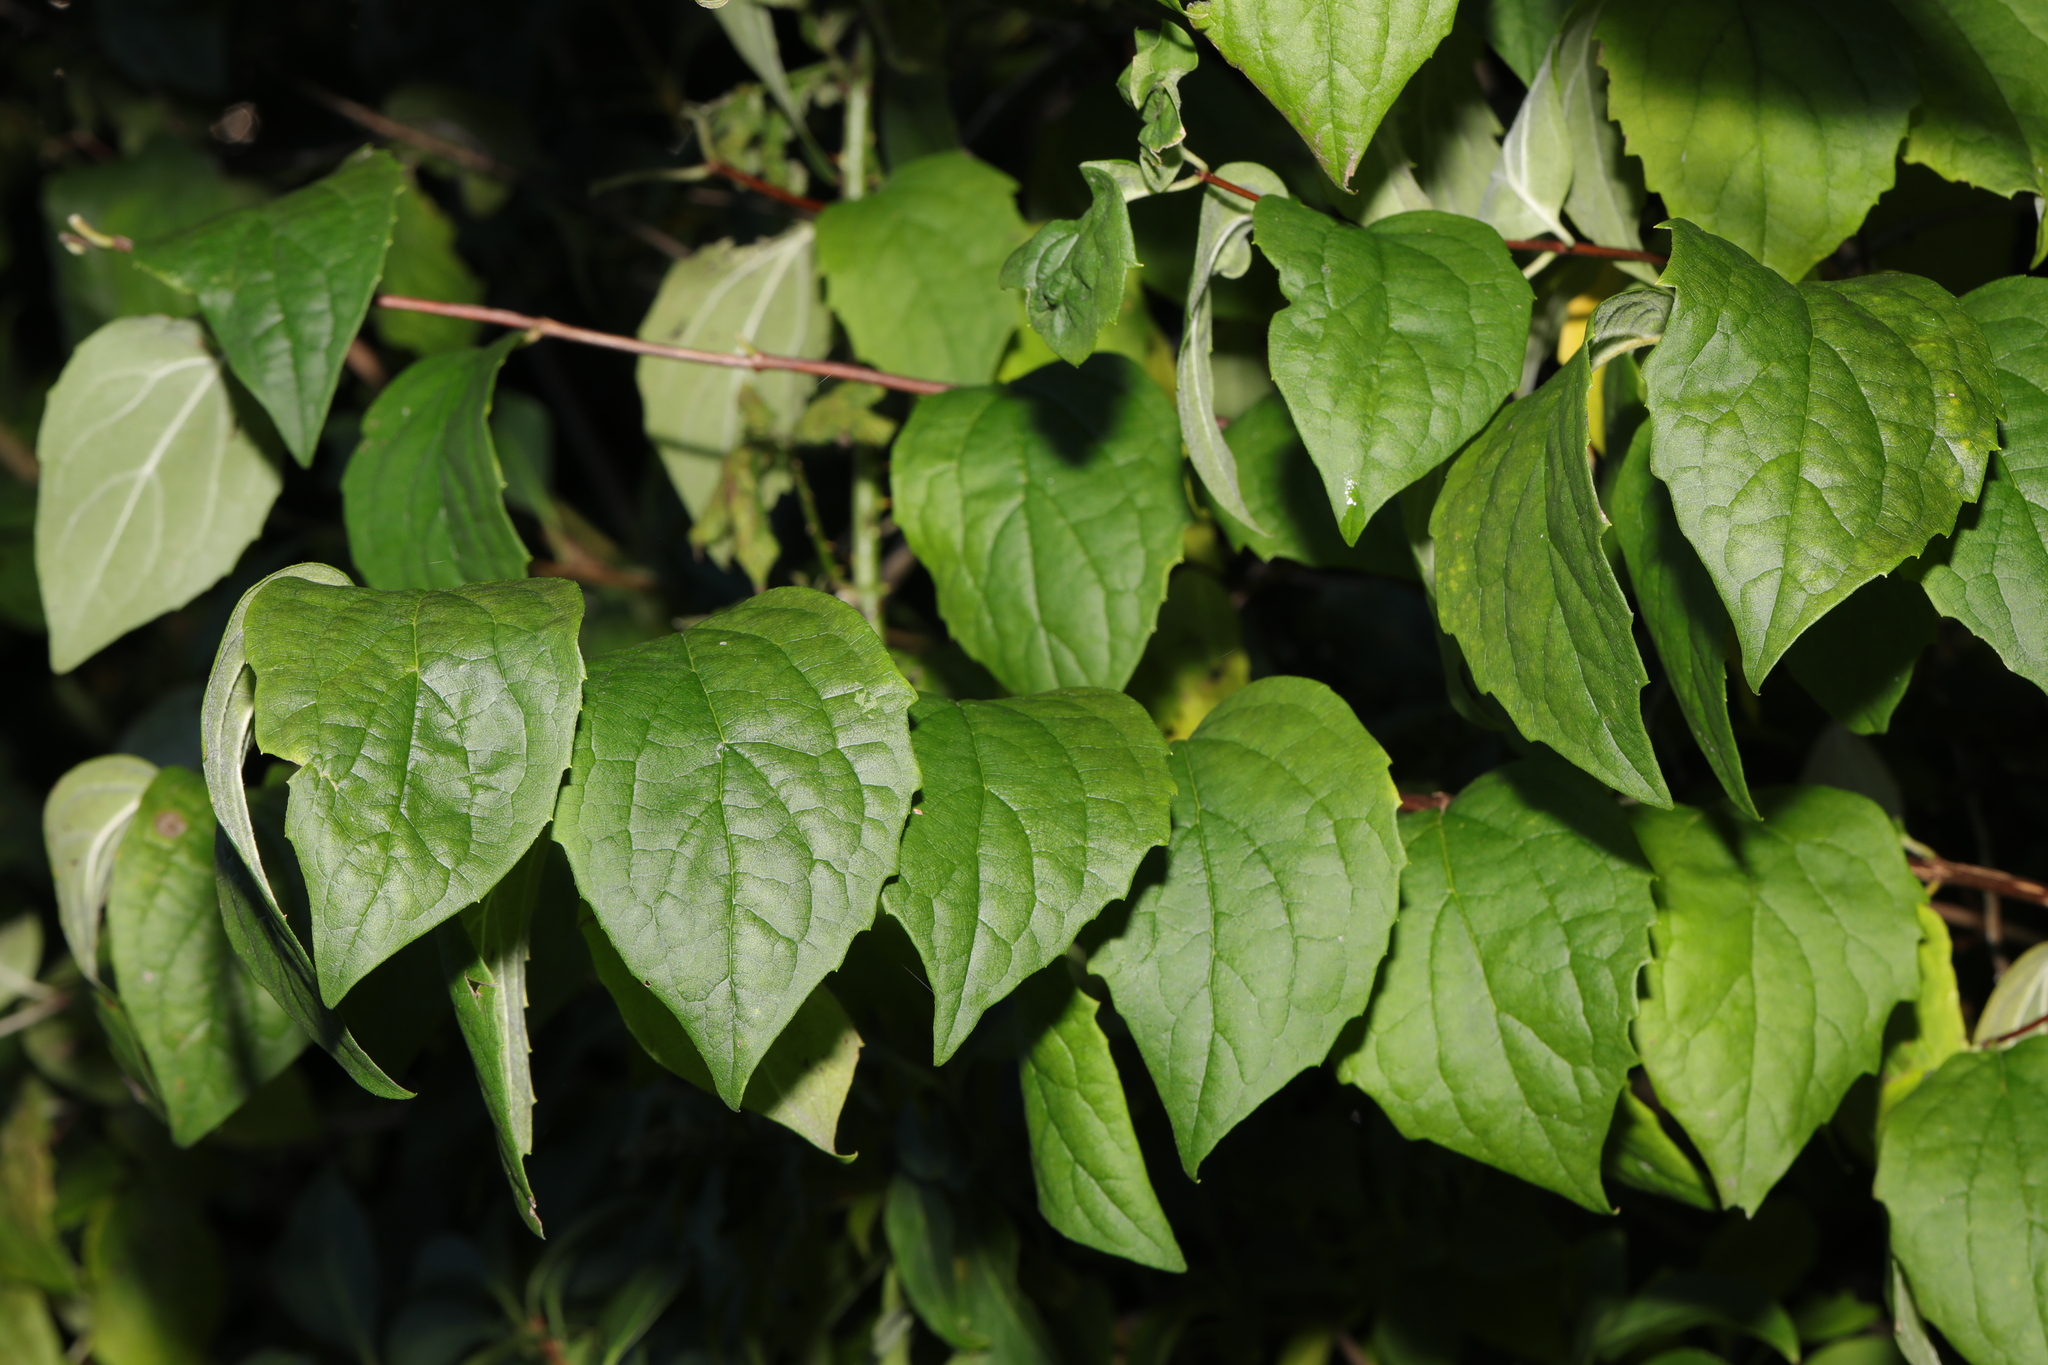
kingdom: Plantae
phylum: Tracheophyta
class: Magnoliopsida
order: Cornales
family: Hydrangeaceae
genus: Philadelphus
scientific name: Philadelphus coronarius
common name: Mock orange
